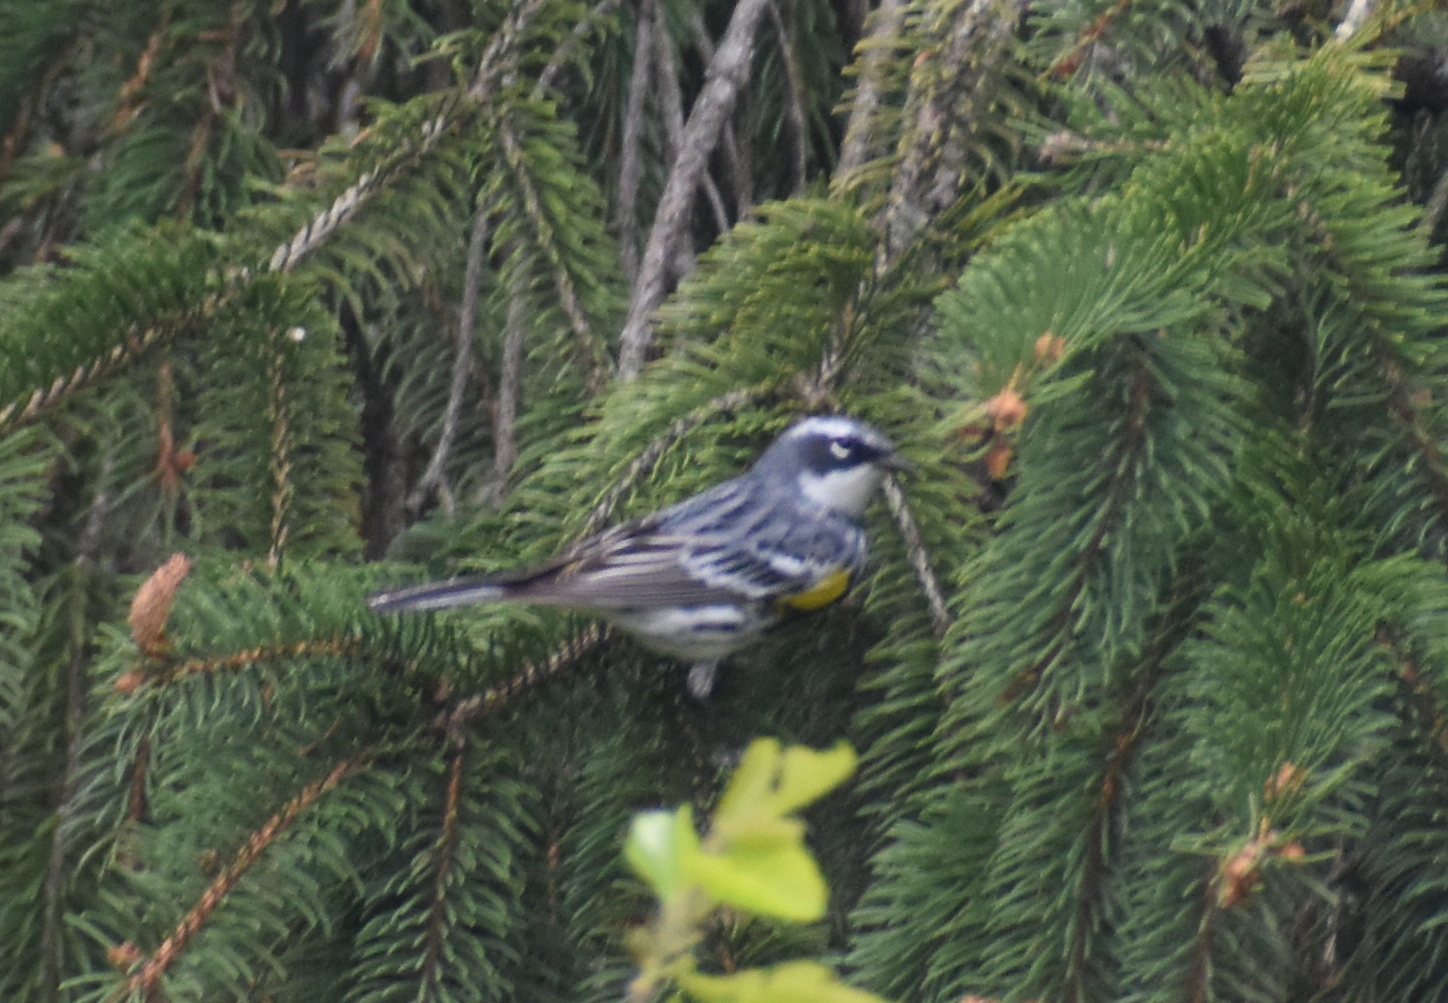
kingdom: Animalia
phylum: Chordata
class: Aves
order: Passeriformes
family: Parulidae
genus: Setophaga
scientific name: Setophaga coronata
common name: Myrtle warbler
